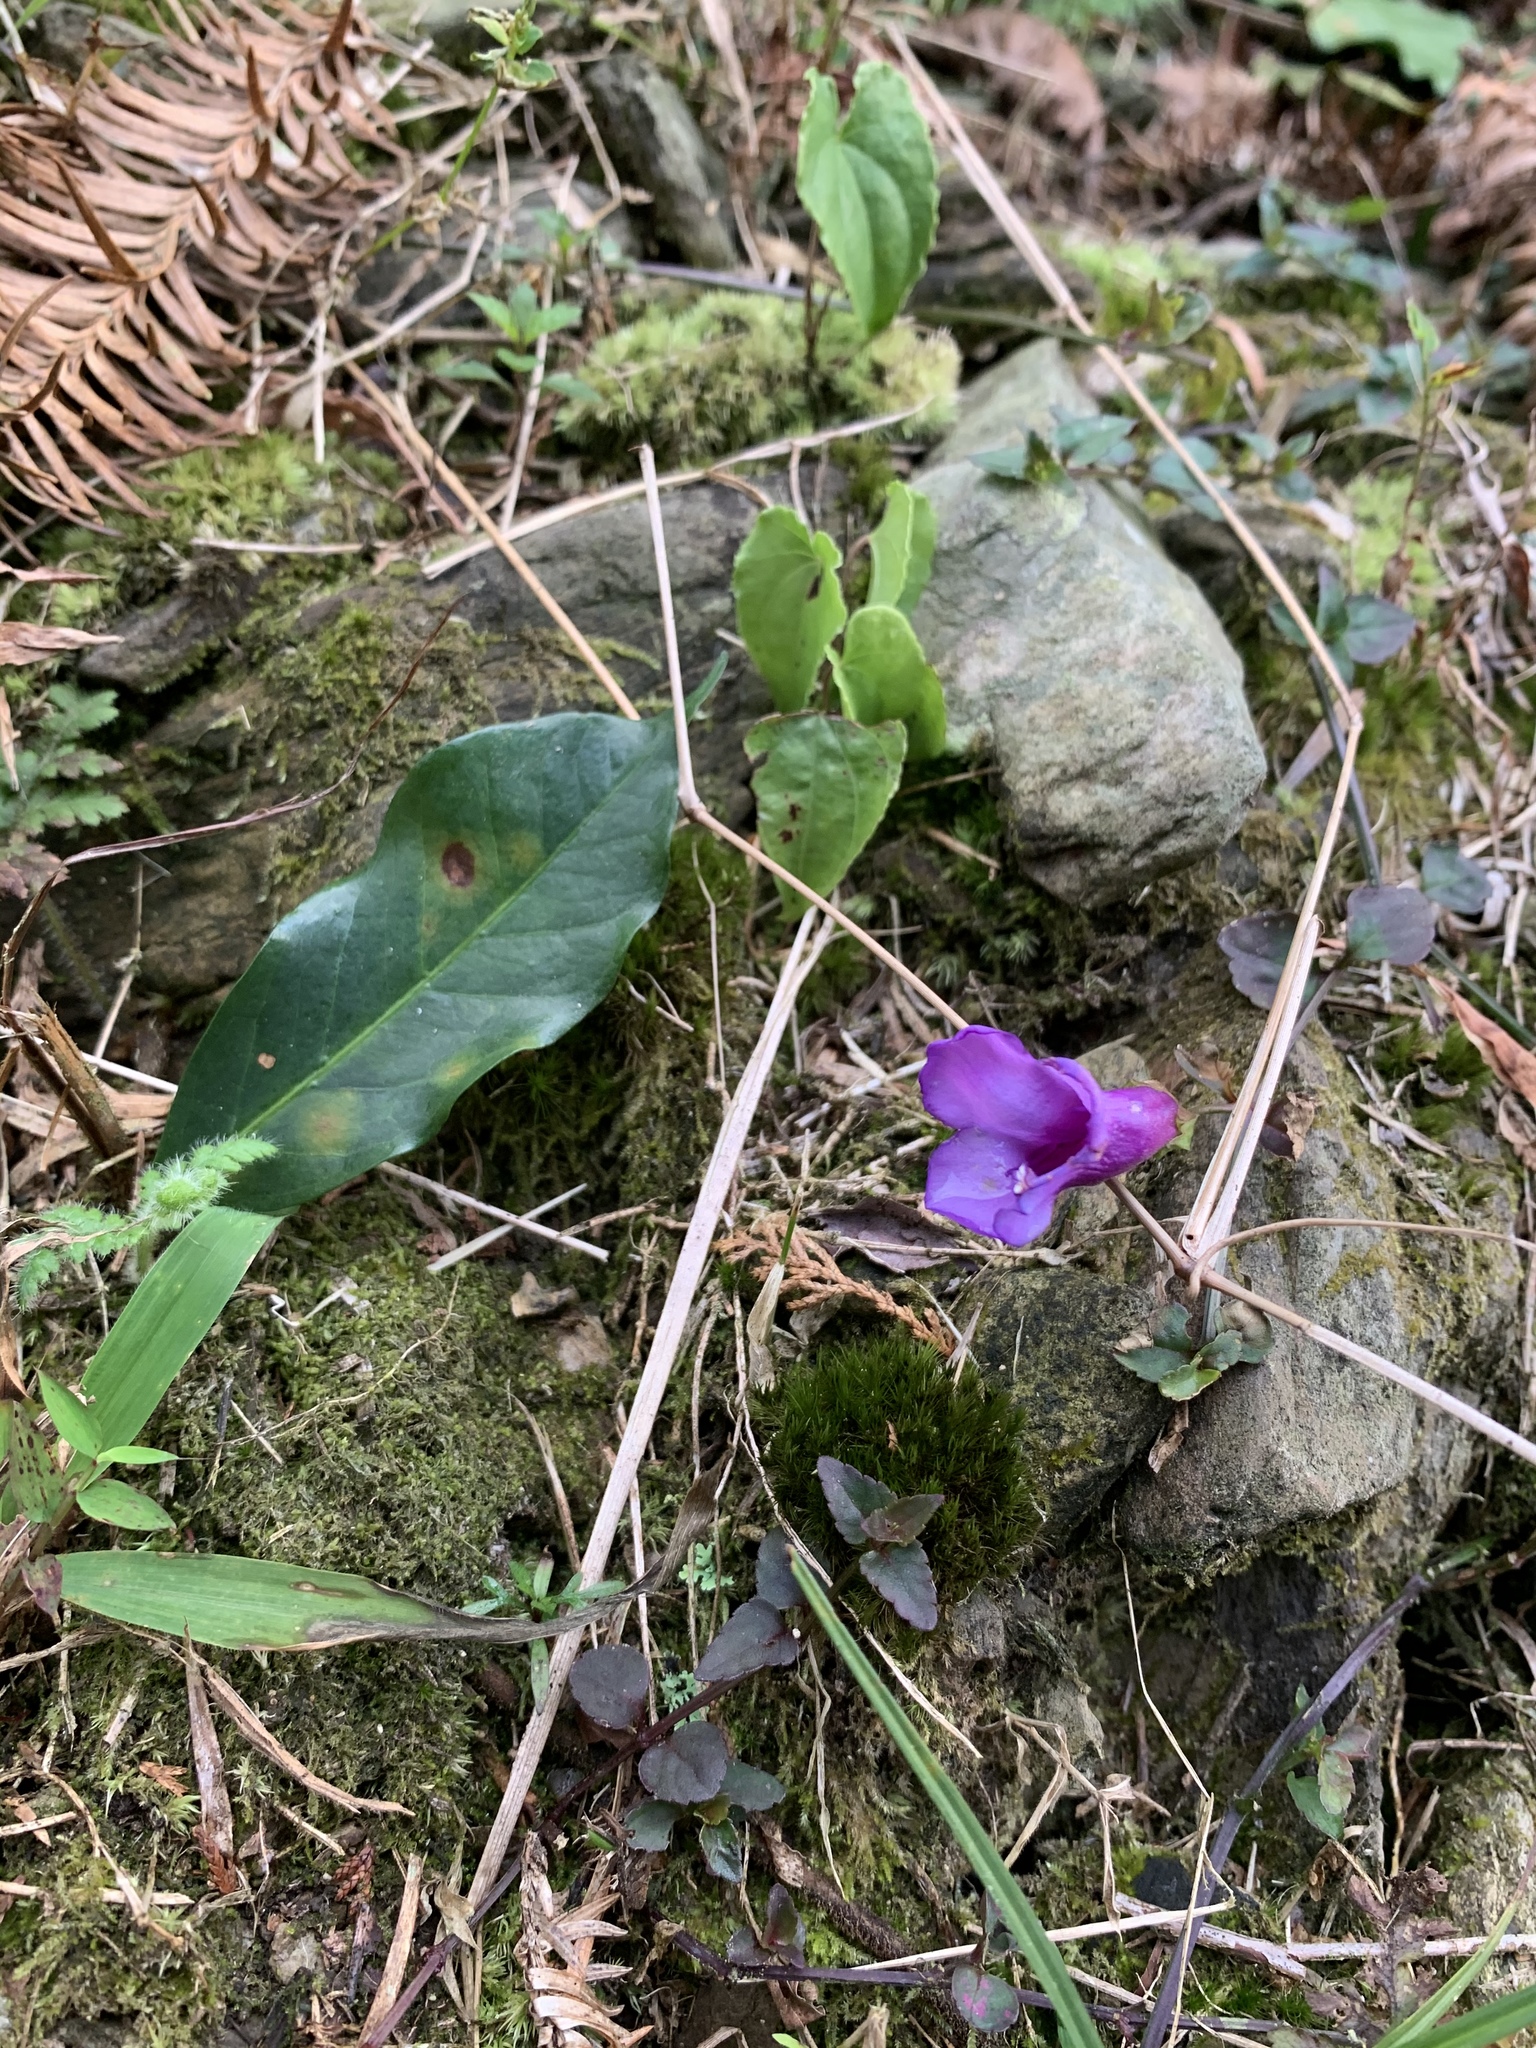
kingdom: Plantae
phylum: Tracheophyta
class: Magnoliopsida
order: Lamiales
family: Linderniaceae
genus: Torenia
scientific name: Torenia concolor
